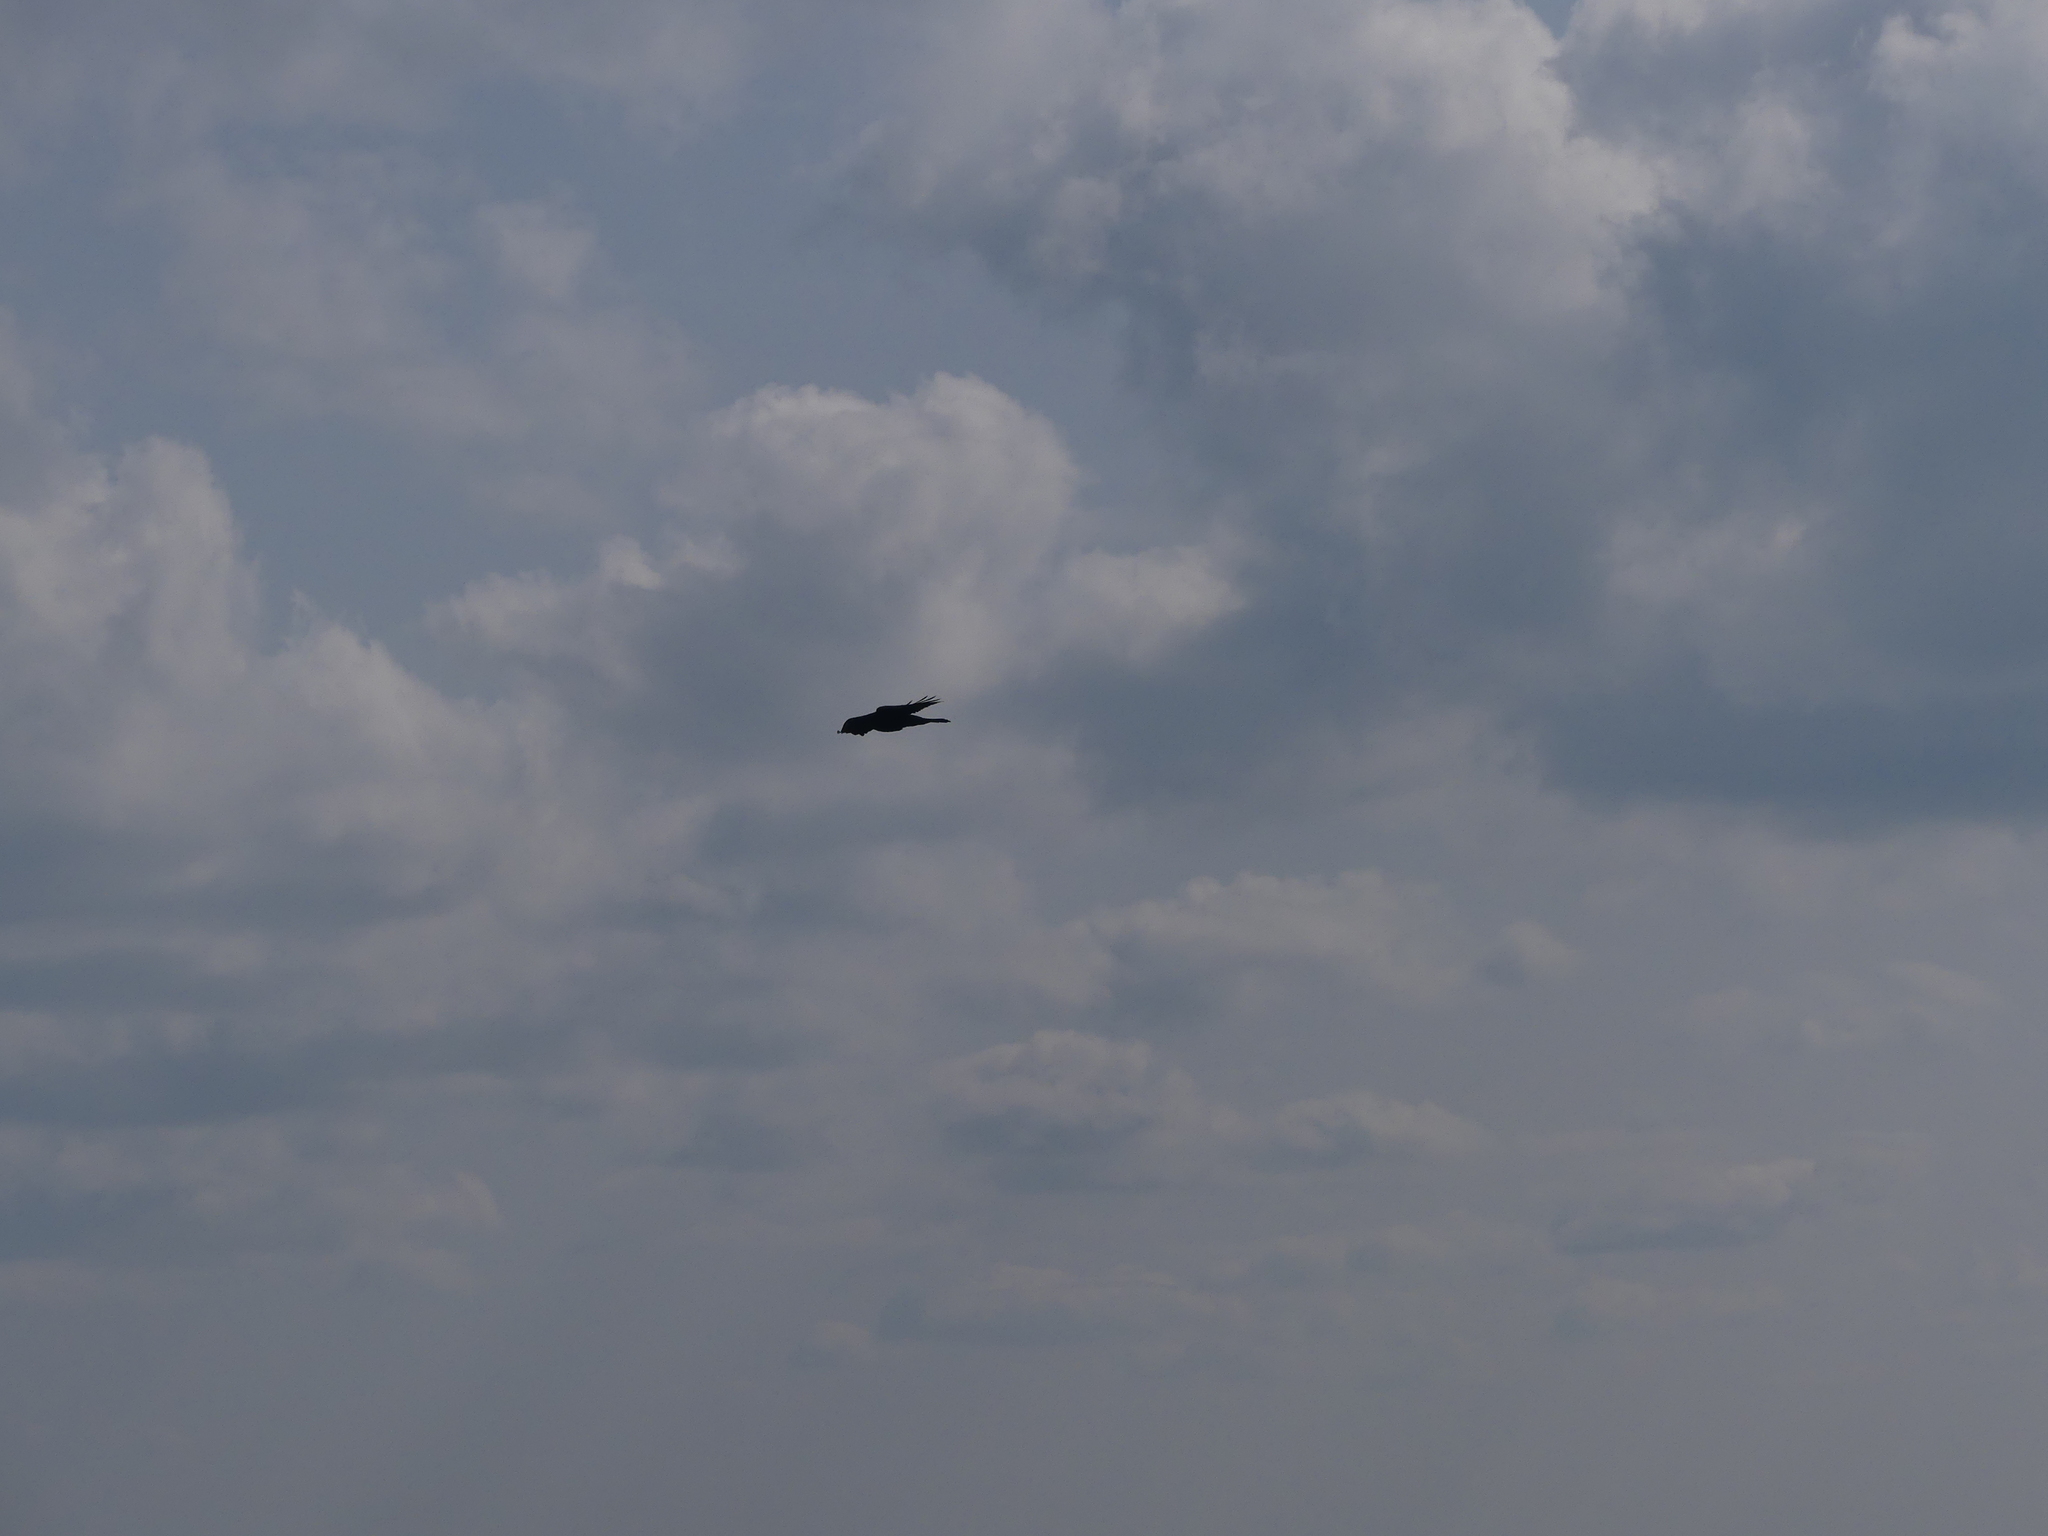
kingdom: Animalia
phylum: Chordata
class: Aves
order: Passeriformes
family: Corvidae
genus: Corvus
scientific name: Corvus corax
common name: Common raven
